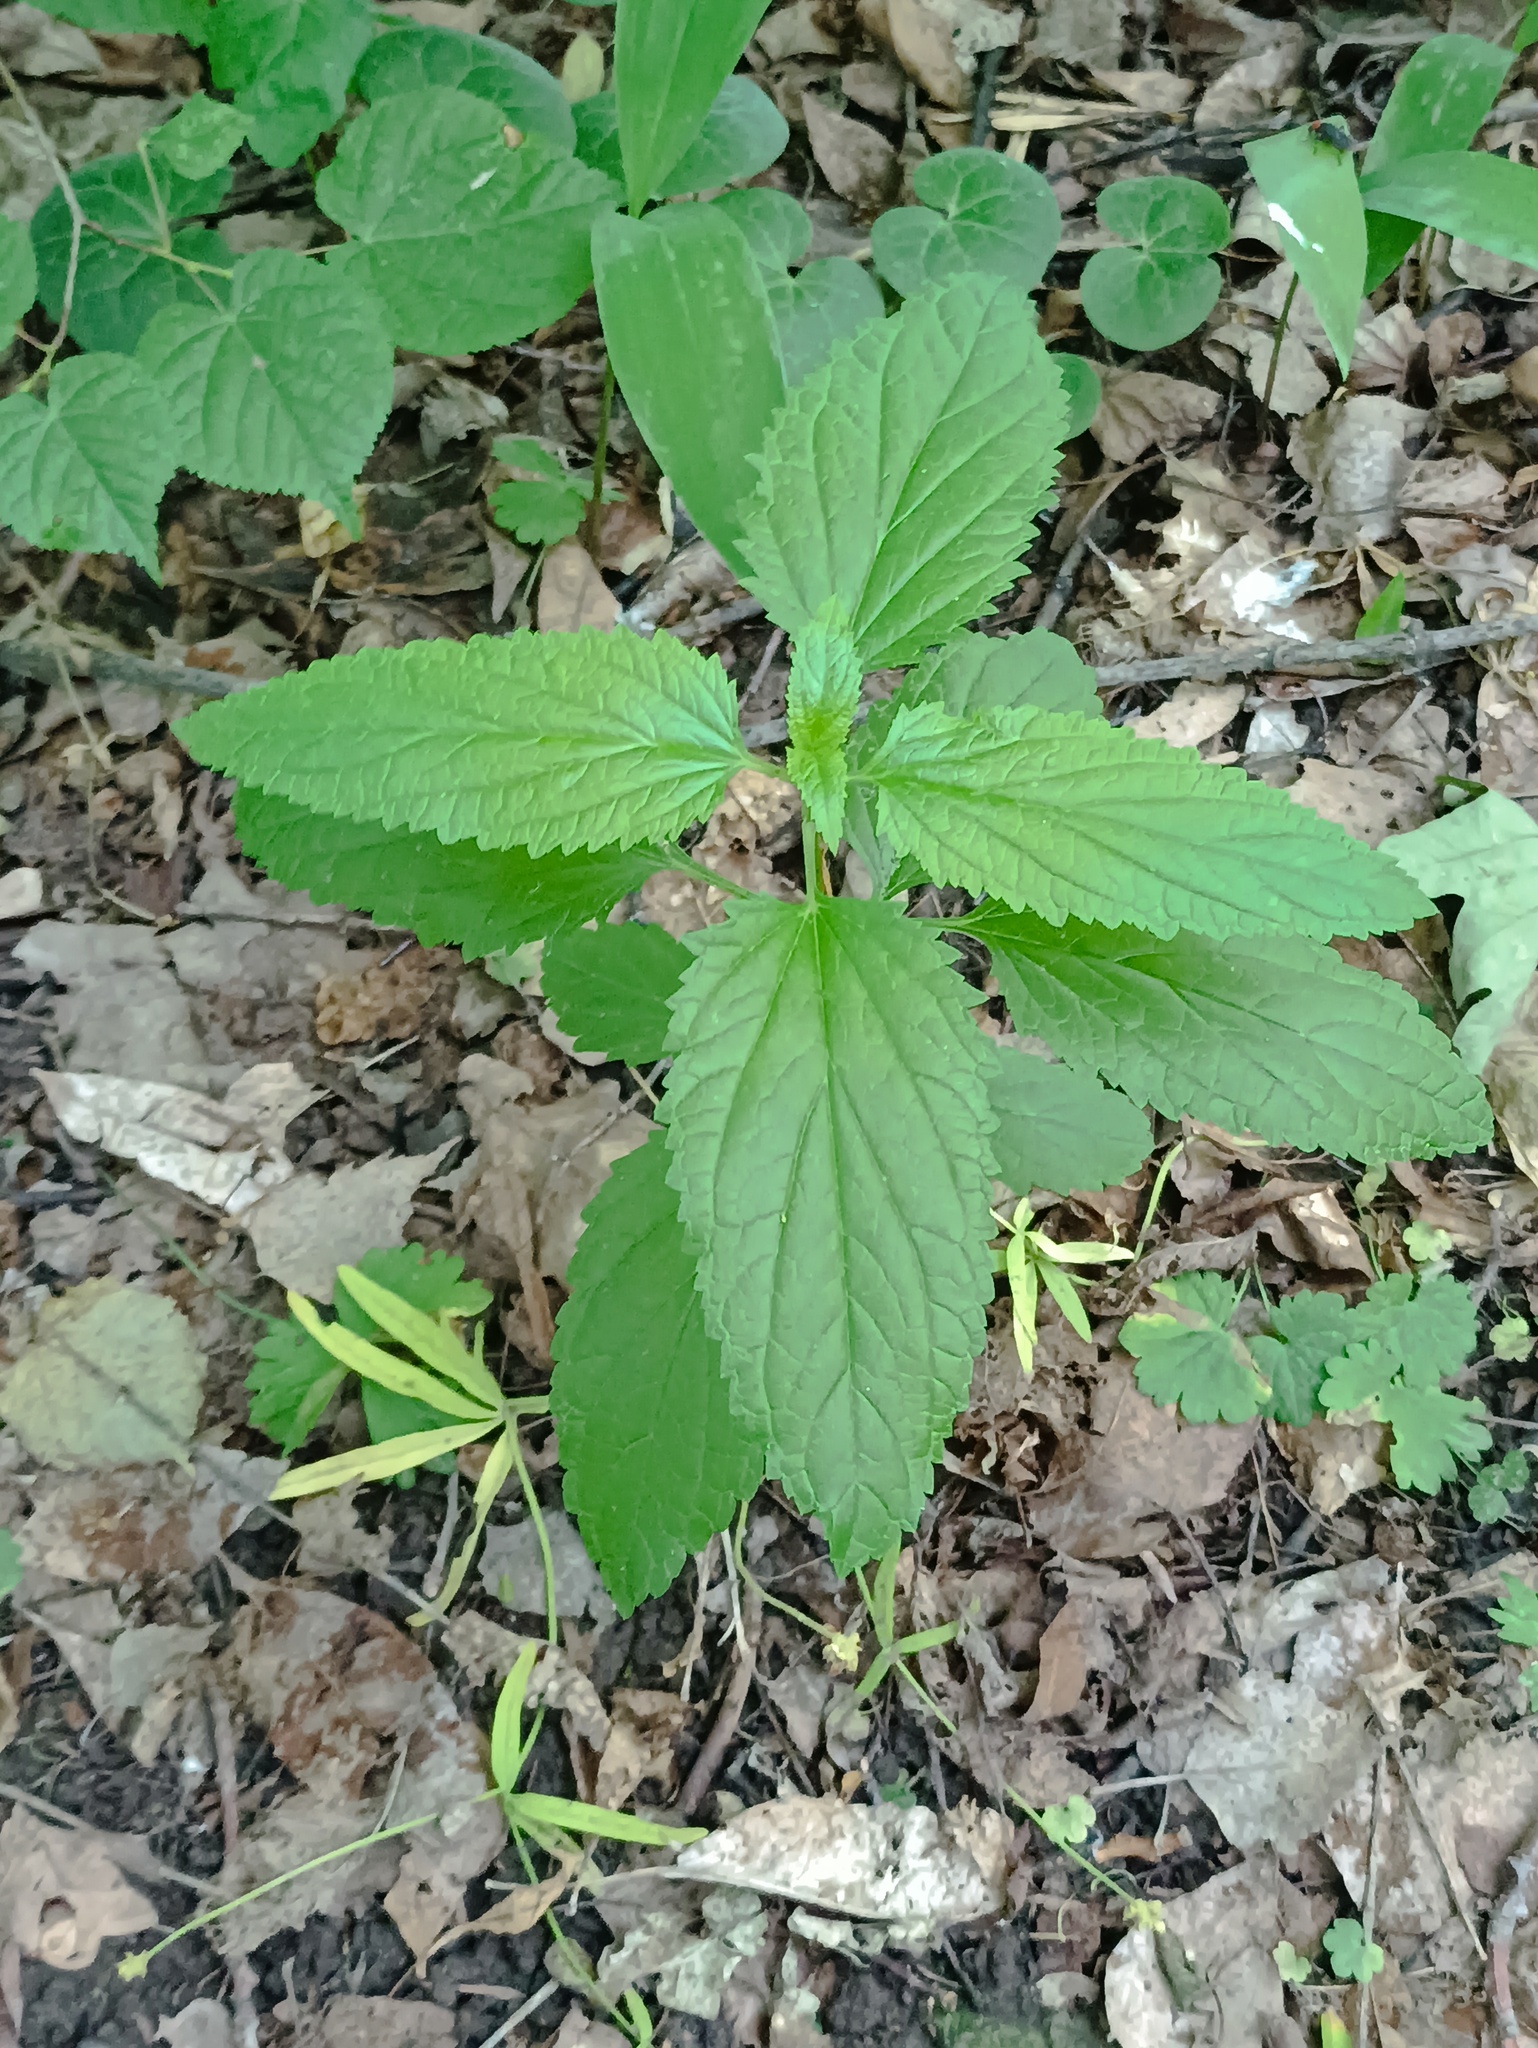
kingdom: Plantae
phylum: Tracheophyta
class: Magnoliopsida
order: Lamiales
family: Scrophulariaceae
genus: Scrophularia
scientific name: Scrophularia nodosa
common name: Common figwort
